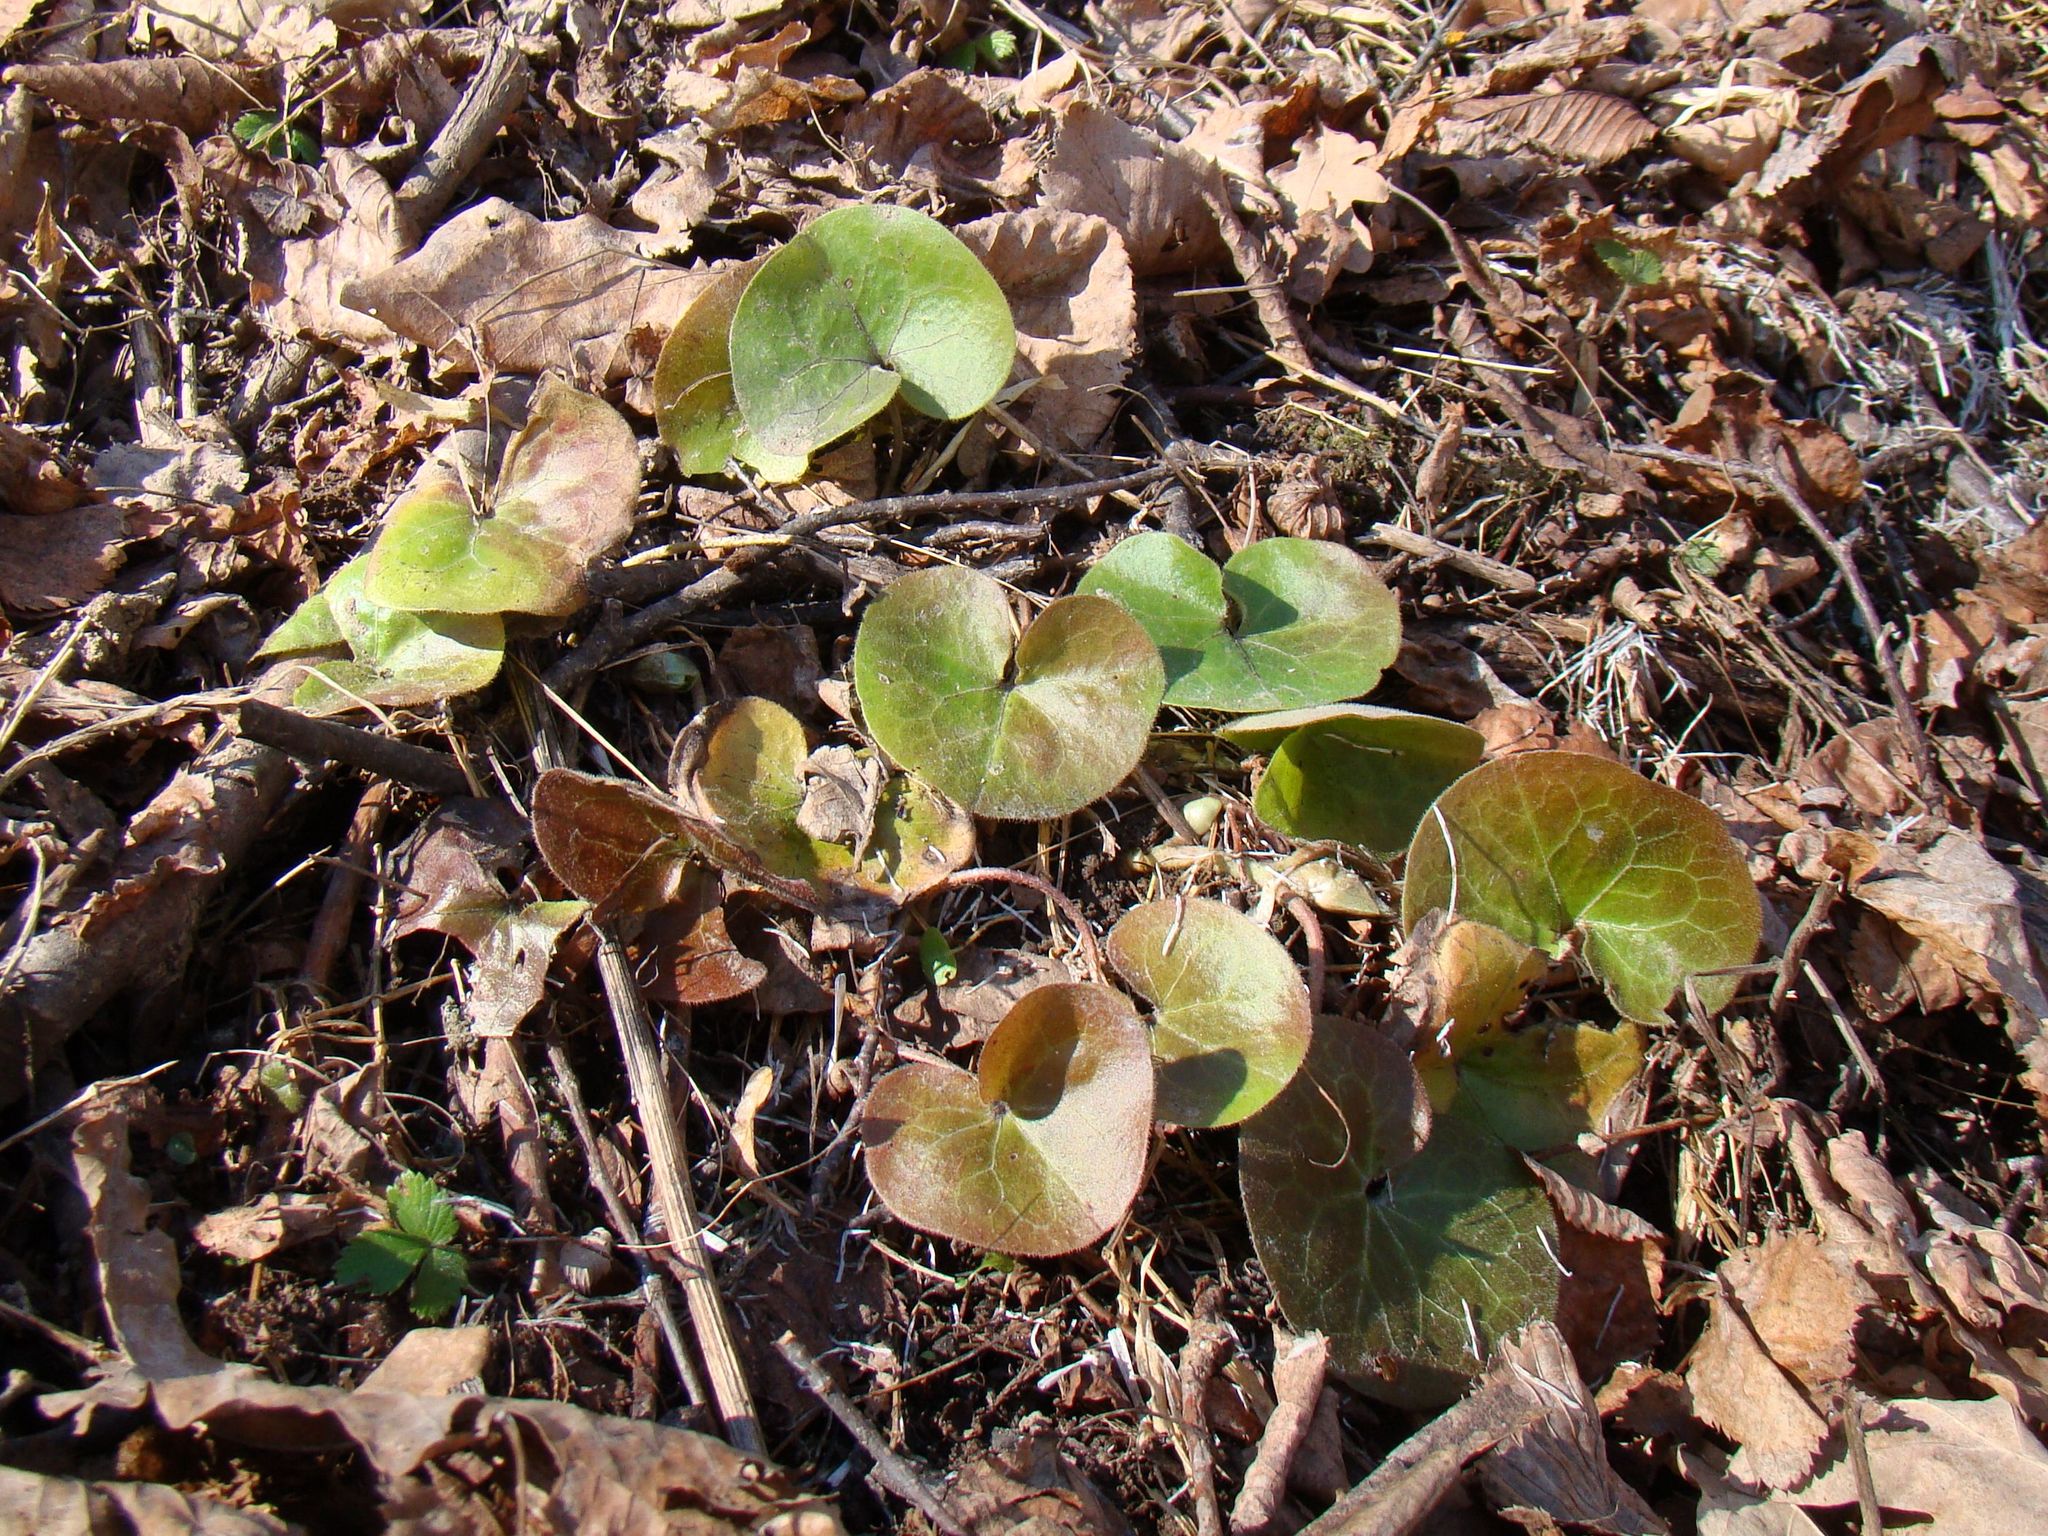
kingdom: Plantae
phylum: Tracheophyta
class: Magnoliopsida
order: Piperales
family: Aristolochiaceae
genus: Asarum
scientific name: Asarum europaeum
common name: Asarabacca
